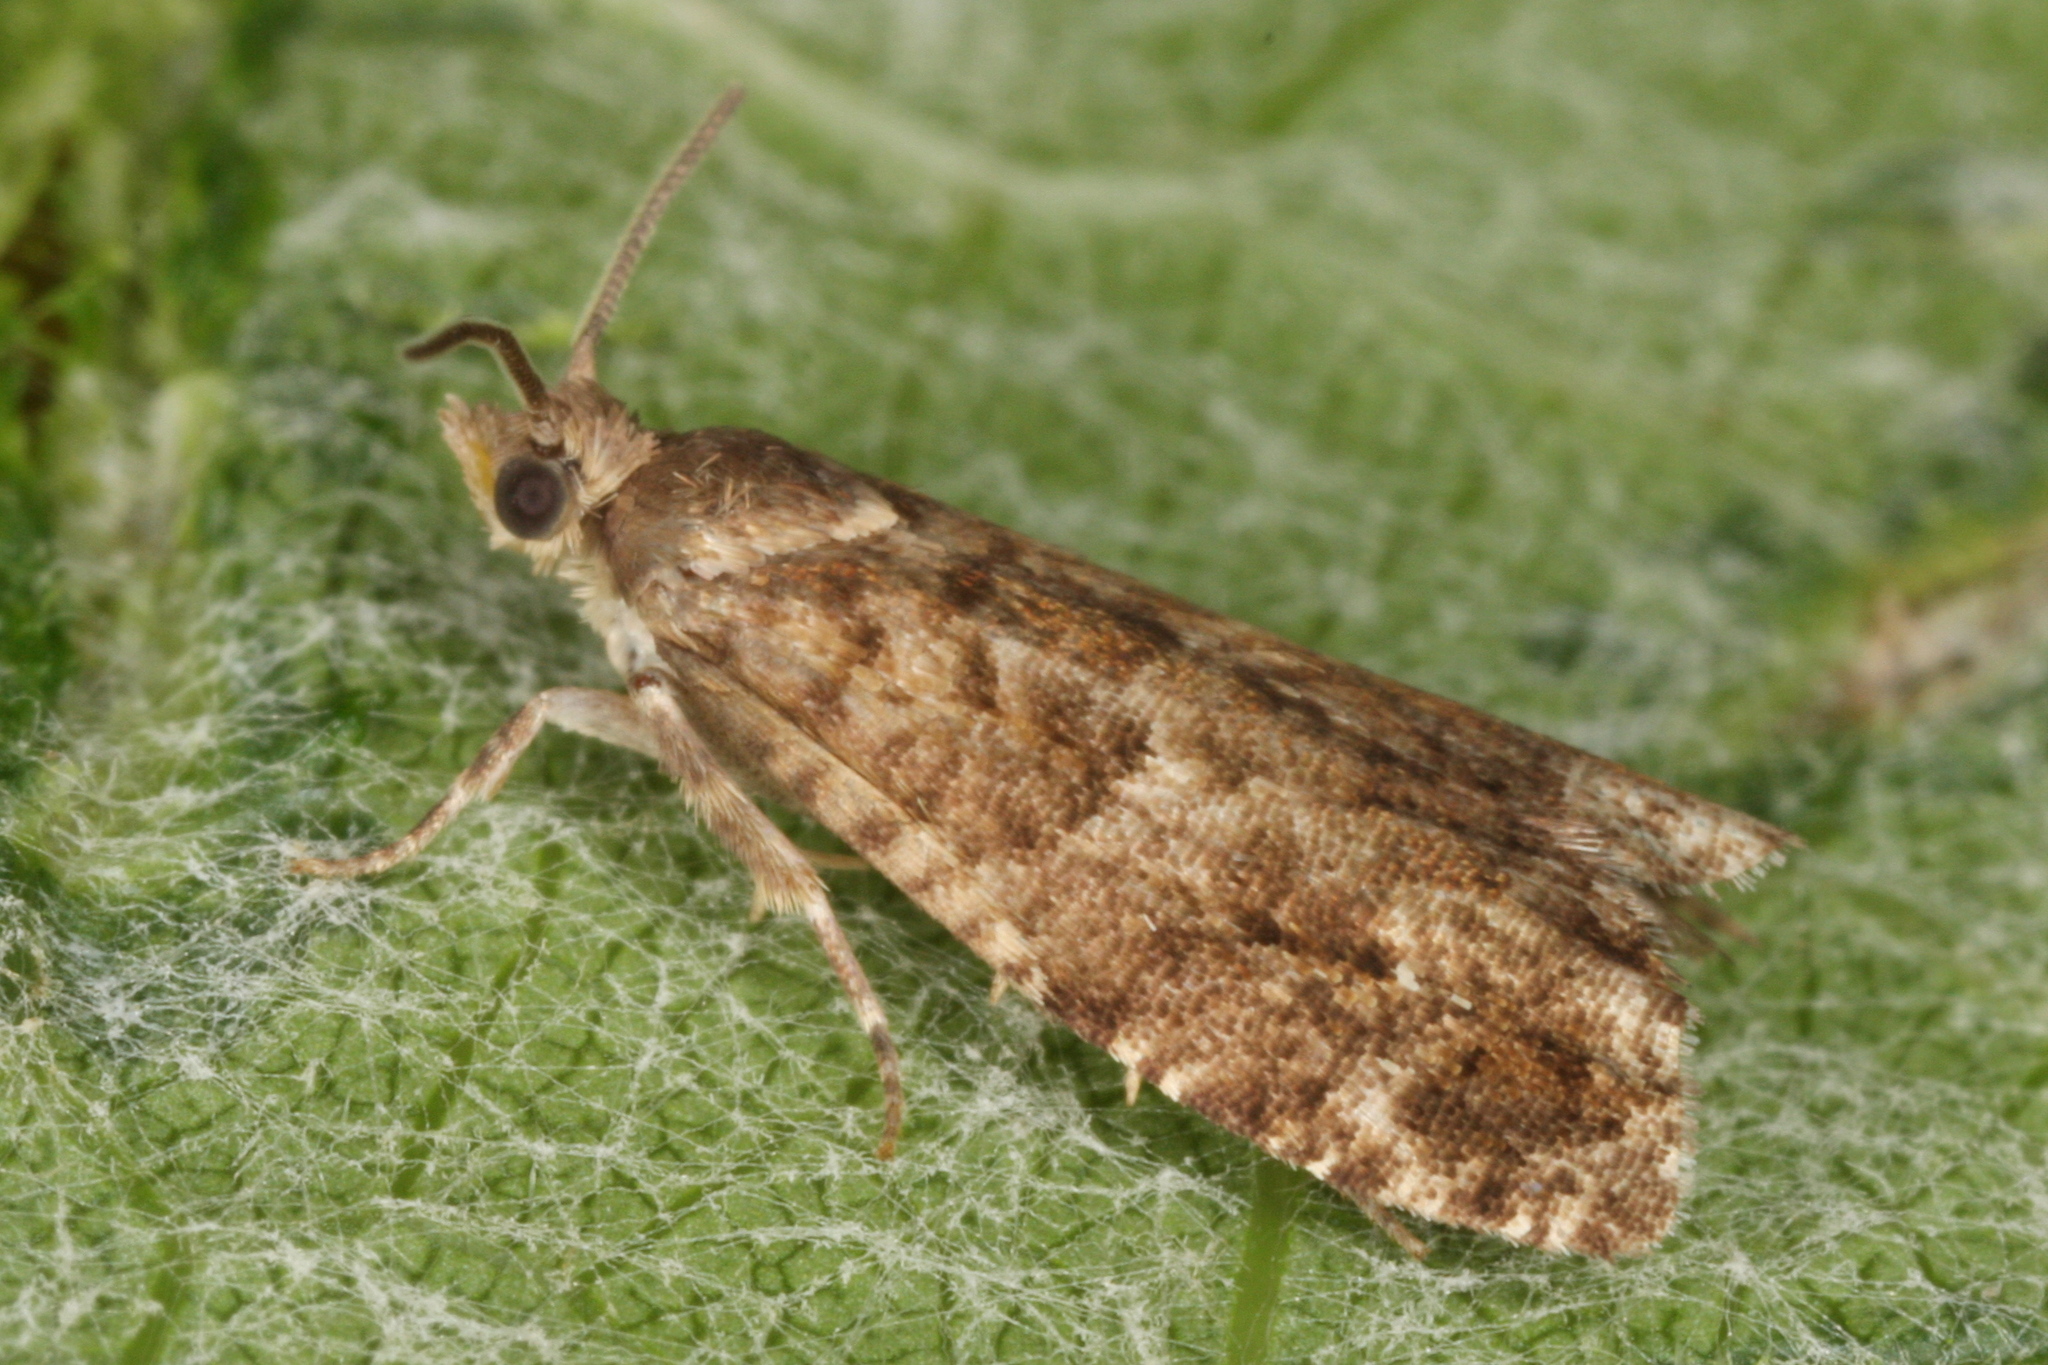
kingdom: Animalia
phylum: Arthropoda
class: Insecta
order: Lepidoptera
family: Tortricidae
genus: Epinotia
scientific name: Epinotia nanana
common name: Leaf roller
